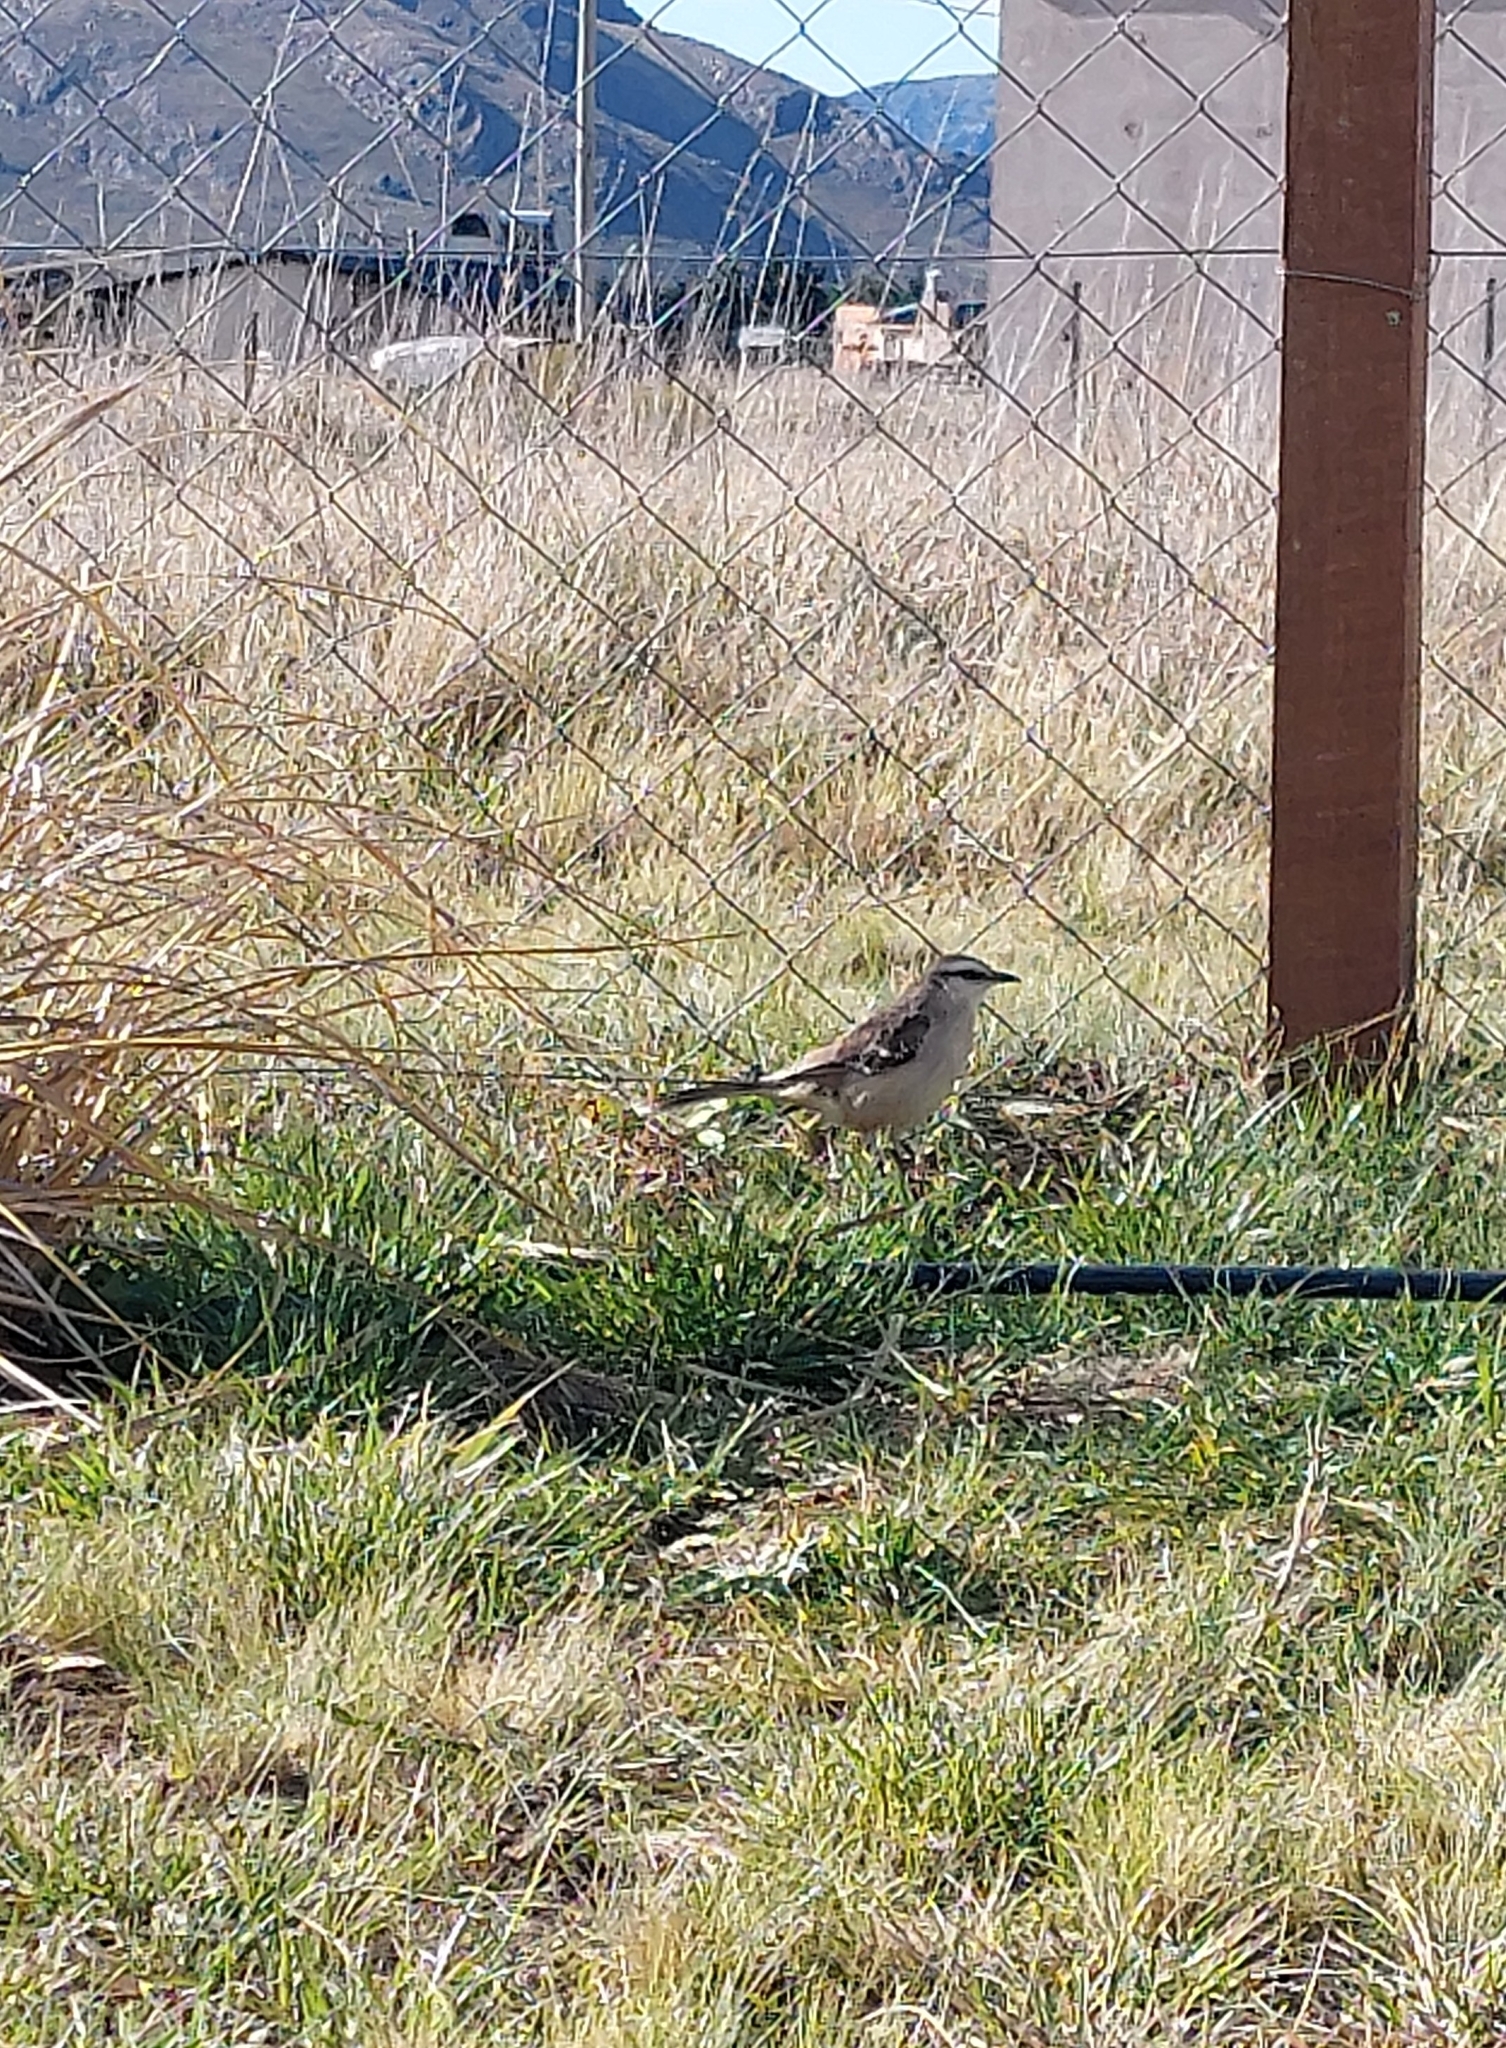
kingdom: Animalia
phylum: Chordata
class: Aves
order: Passeriformes
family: Mimidae
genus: Mimus
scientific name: Mimus saturninus
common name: Chalk-browed mockingbird
